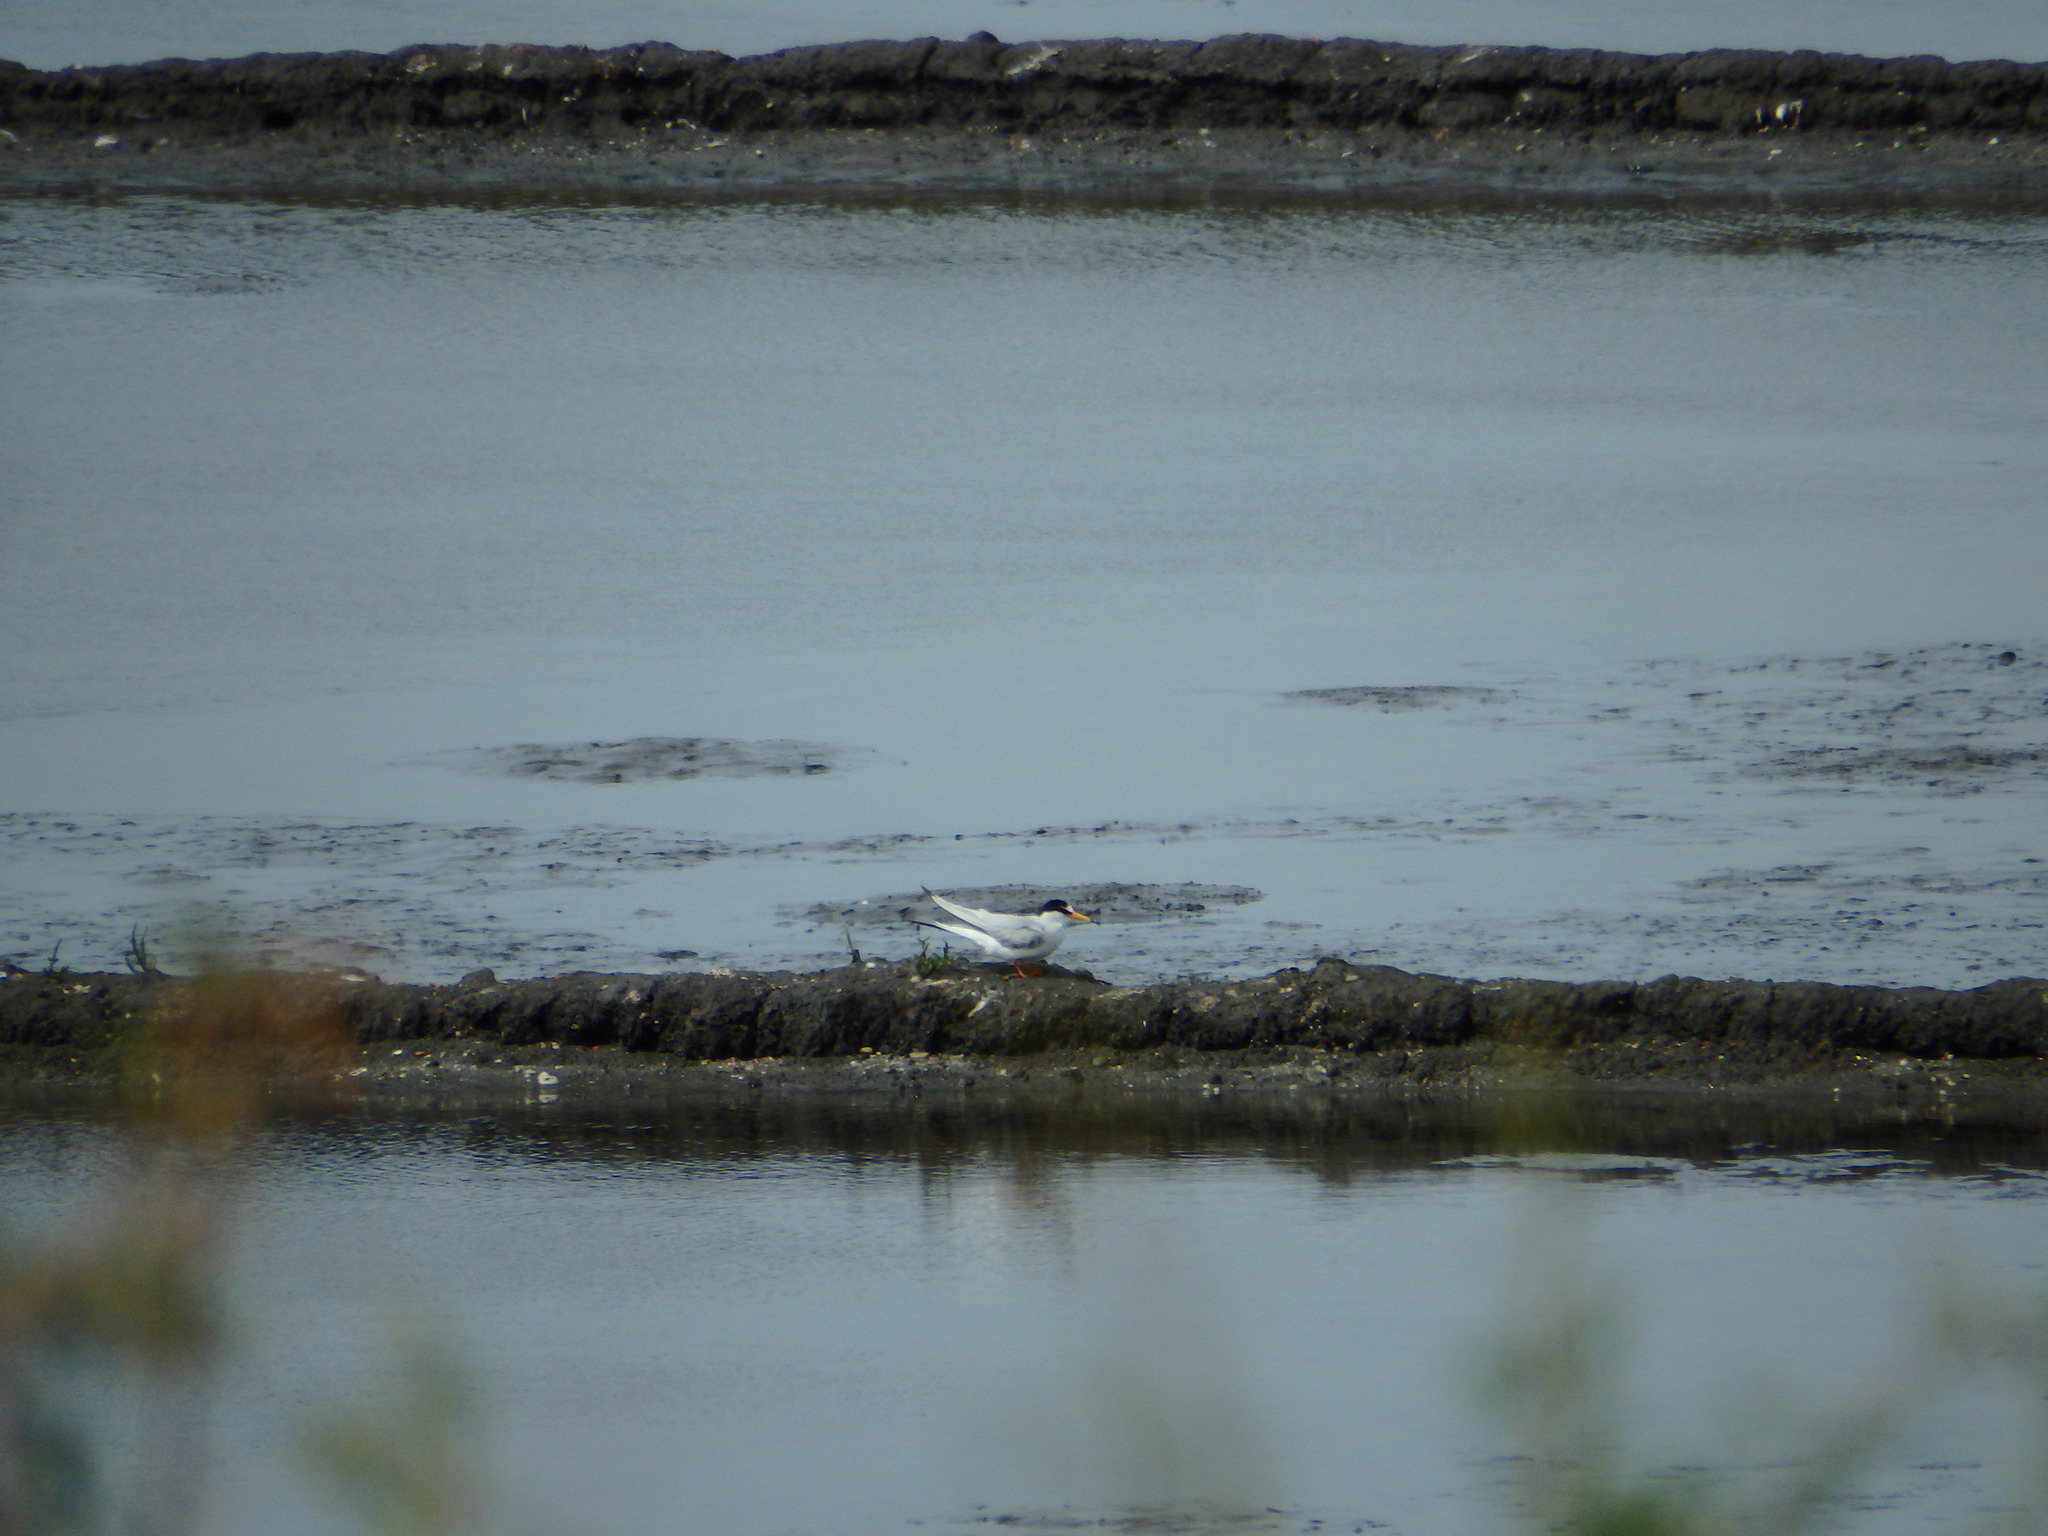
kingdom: Animalia
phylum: Chordata
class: Aves
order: Charadriiformes
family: Laridae
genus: Sternula
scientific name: Sternula albifrons
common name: Little tern
